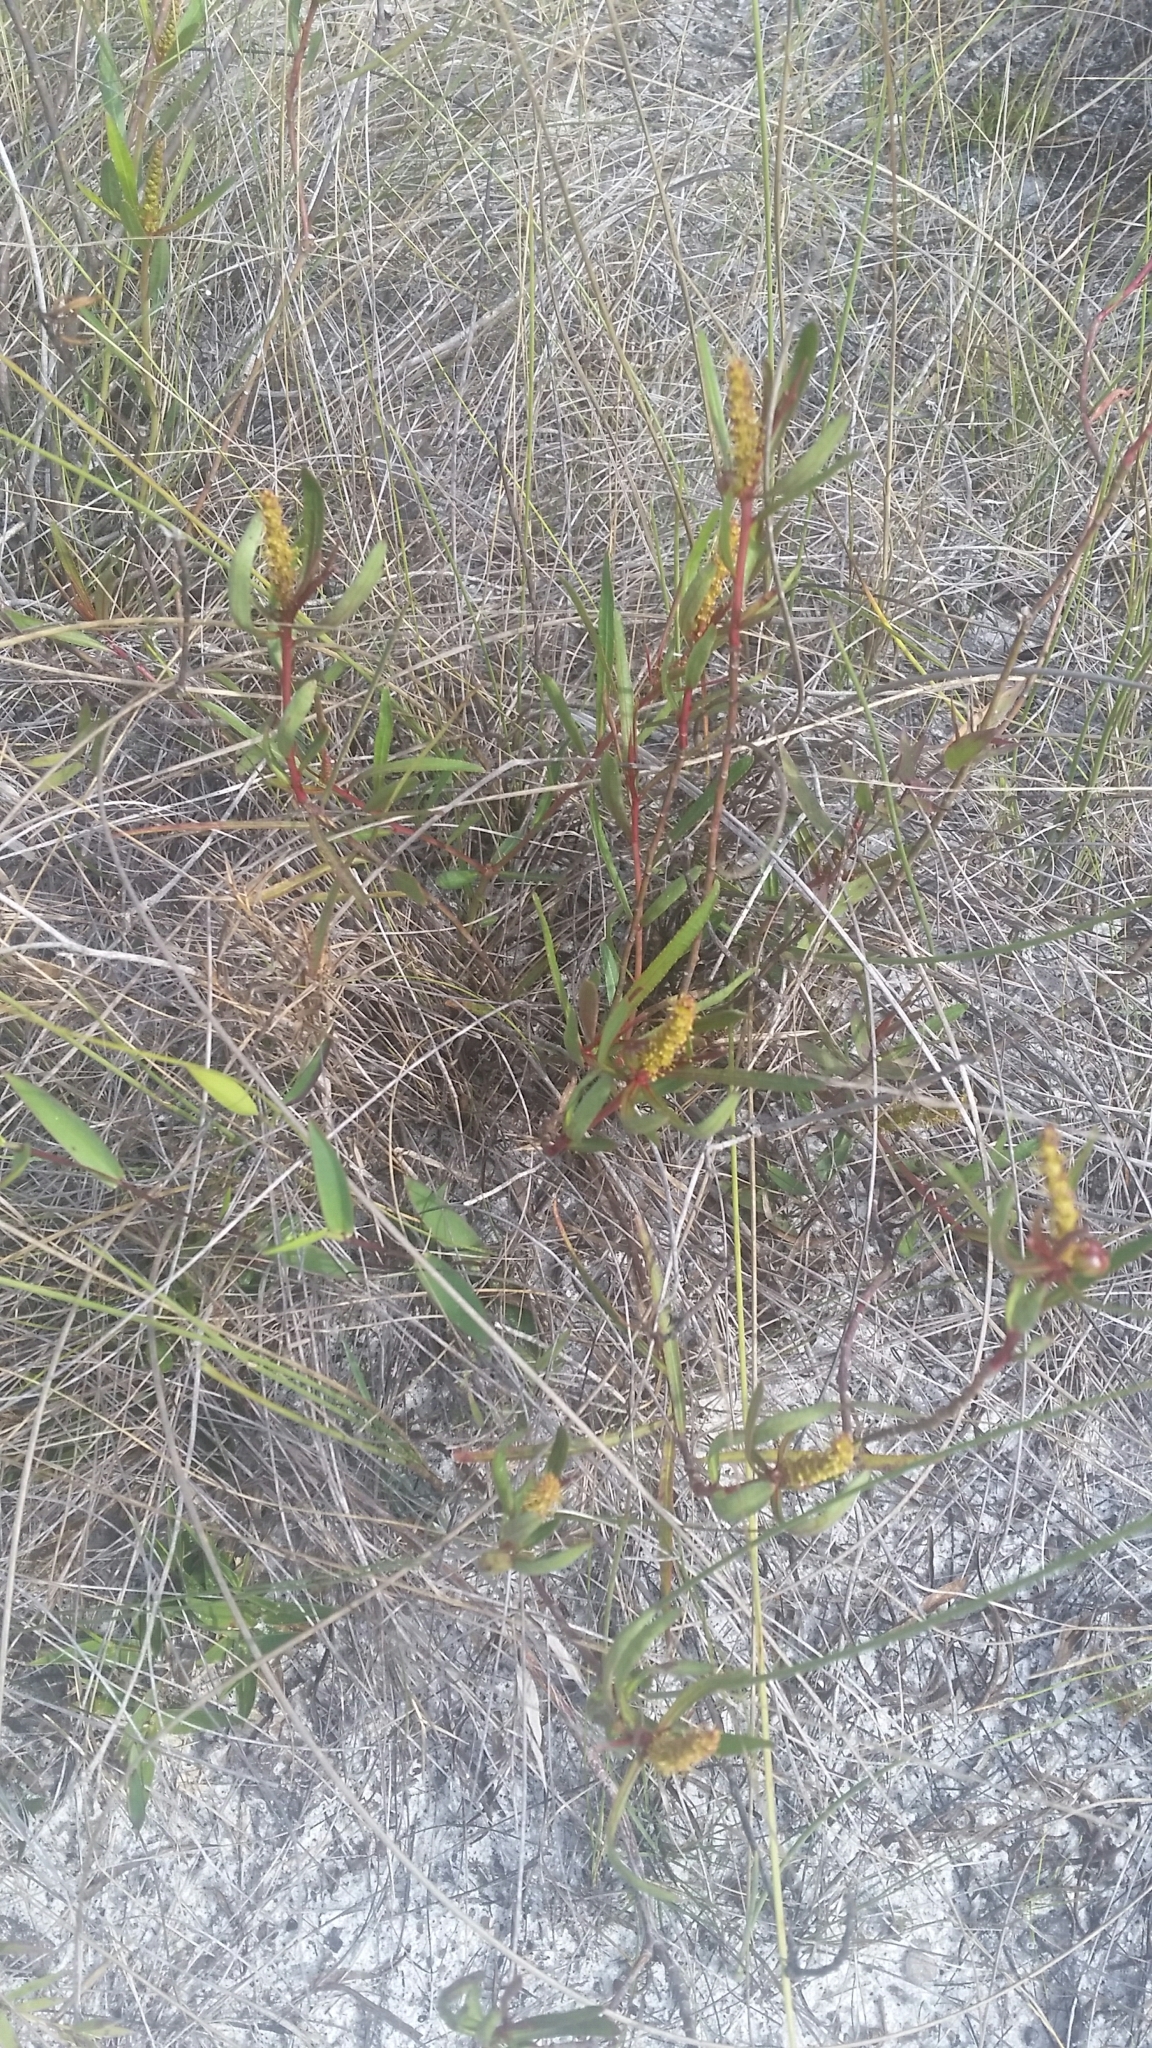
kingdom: Plantae
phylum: Tracheophyta
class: Magnoliopsida
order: Malpighiales
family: Euphorbiaceae
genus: Stillingia
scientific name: Stillingia sylvatica
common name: Queen's-delight
